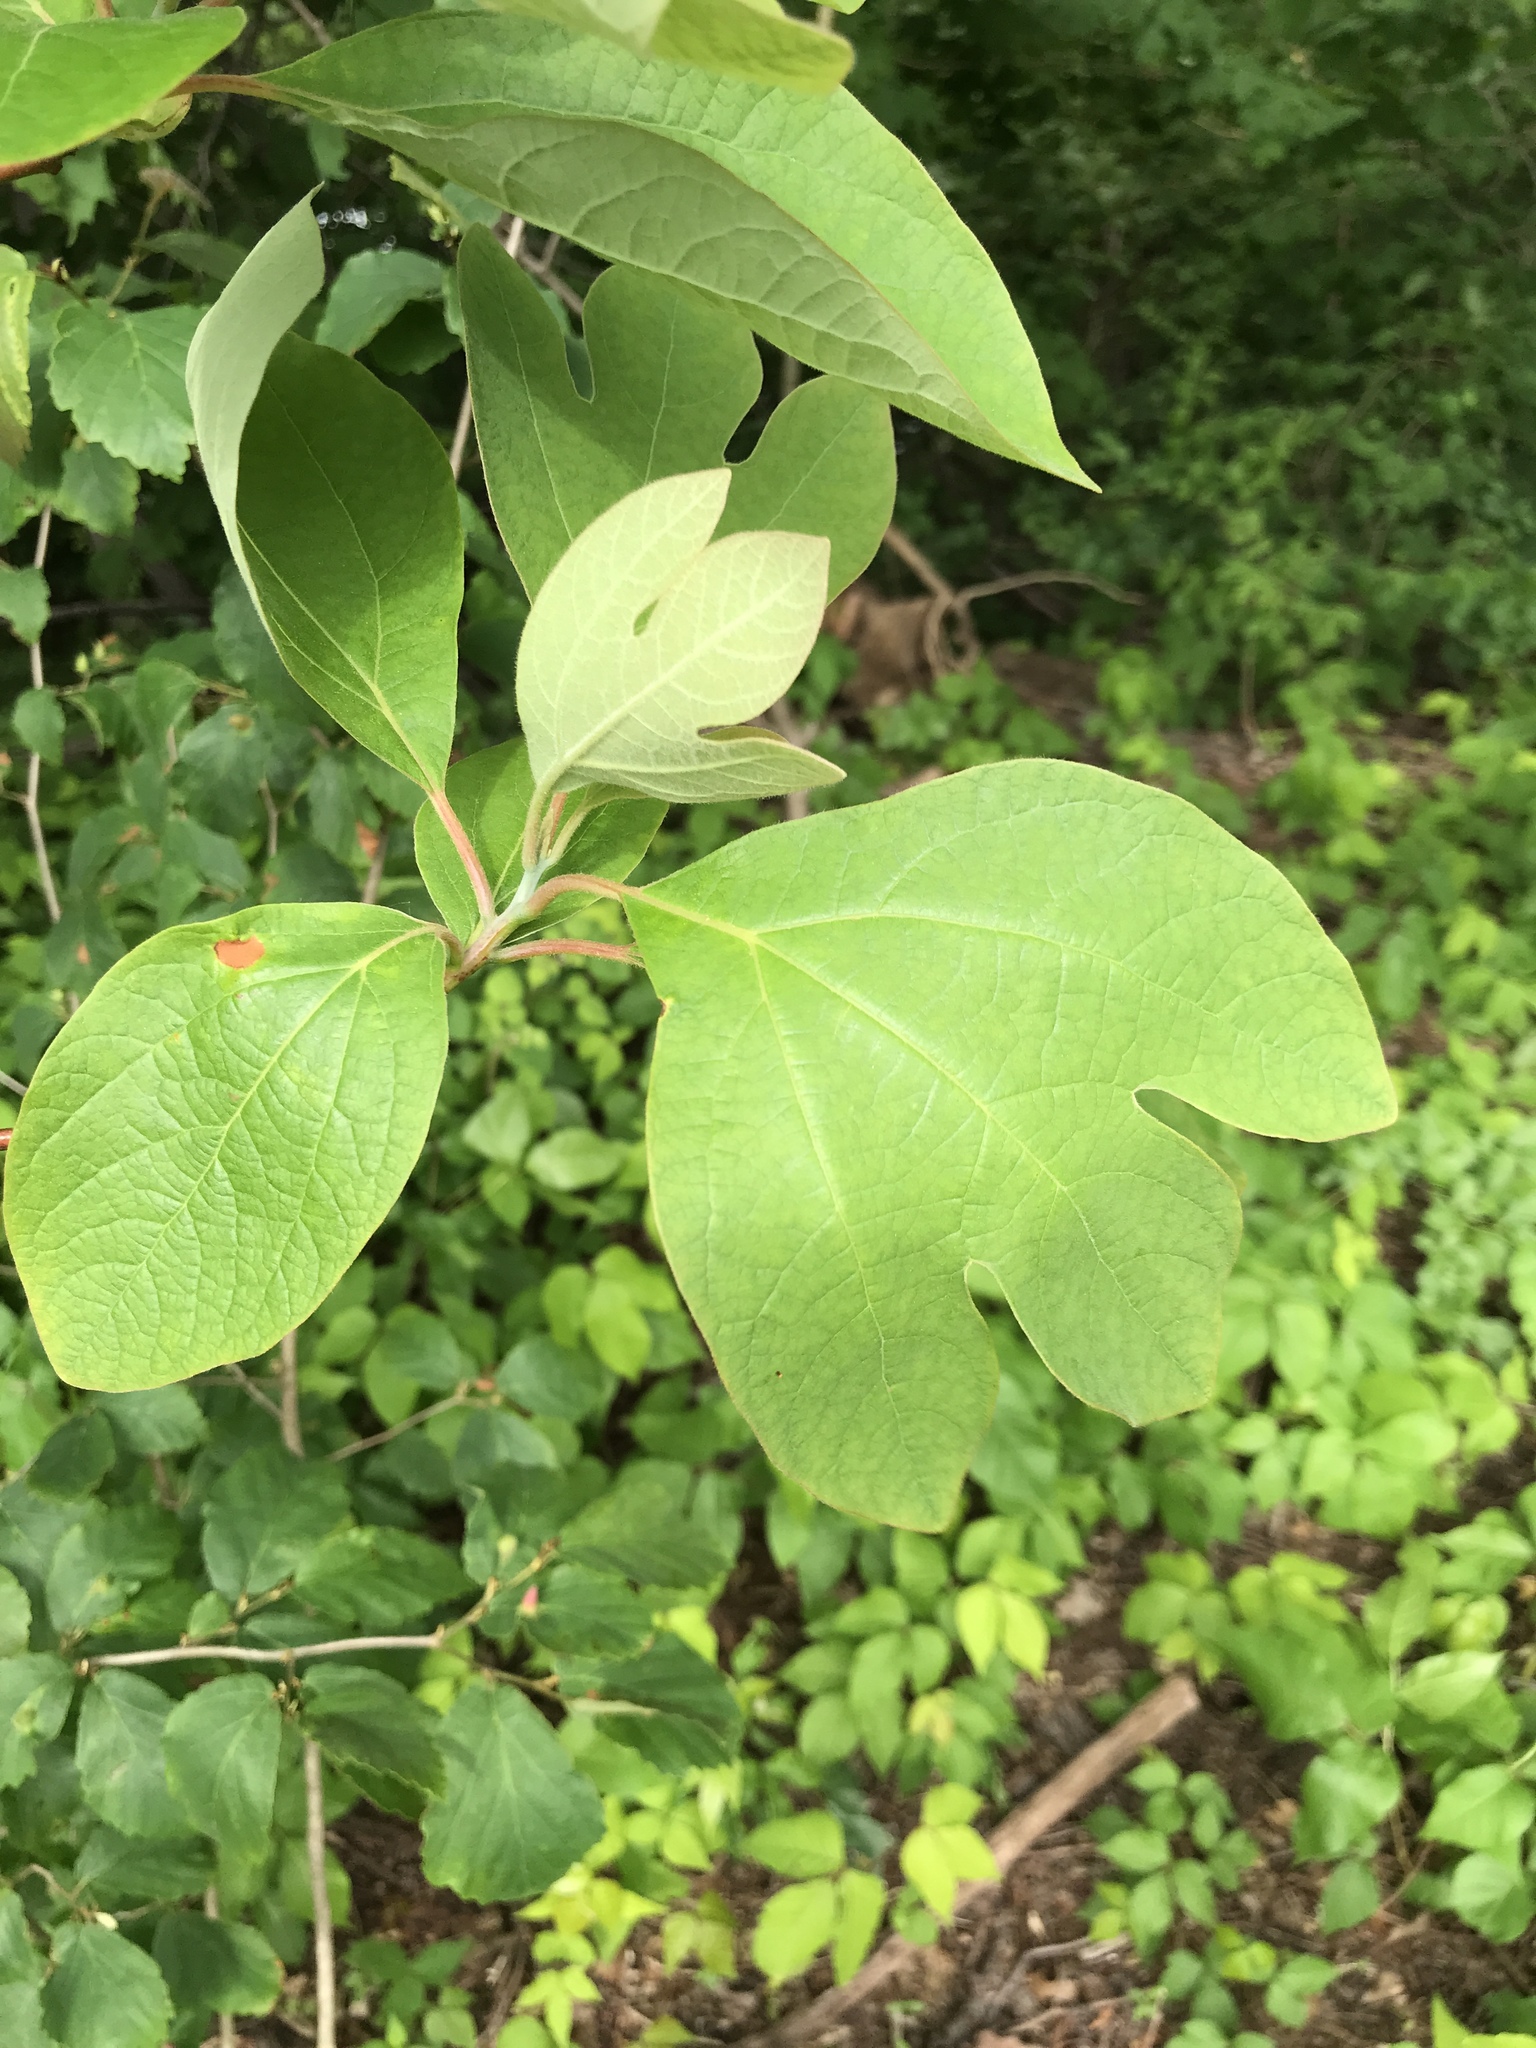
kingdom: Plantae
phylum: Tracheophyta
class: Magnoliopsida
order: Laurales
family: Lauraceae
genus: Sassafras
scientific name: Sassafras albidum
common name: Sassafras
